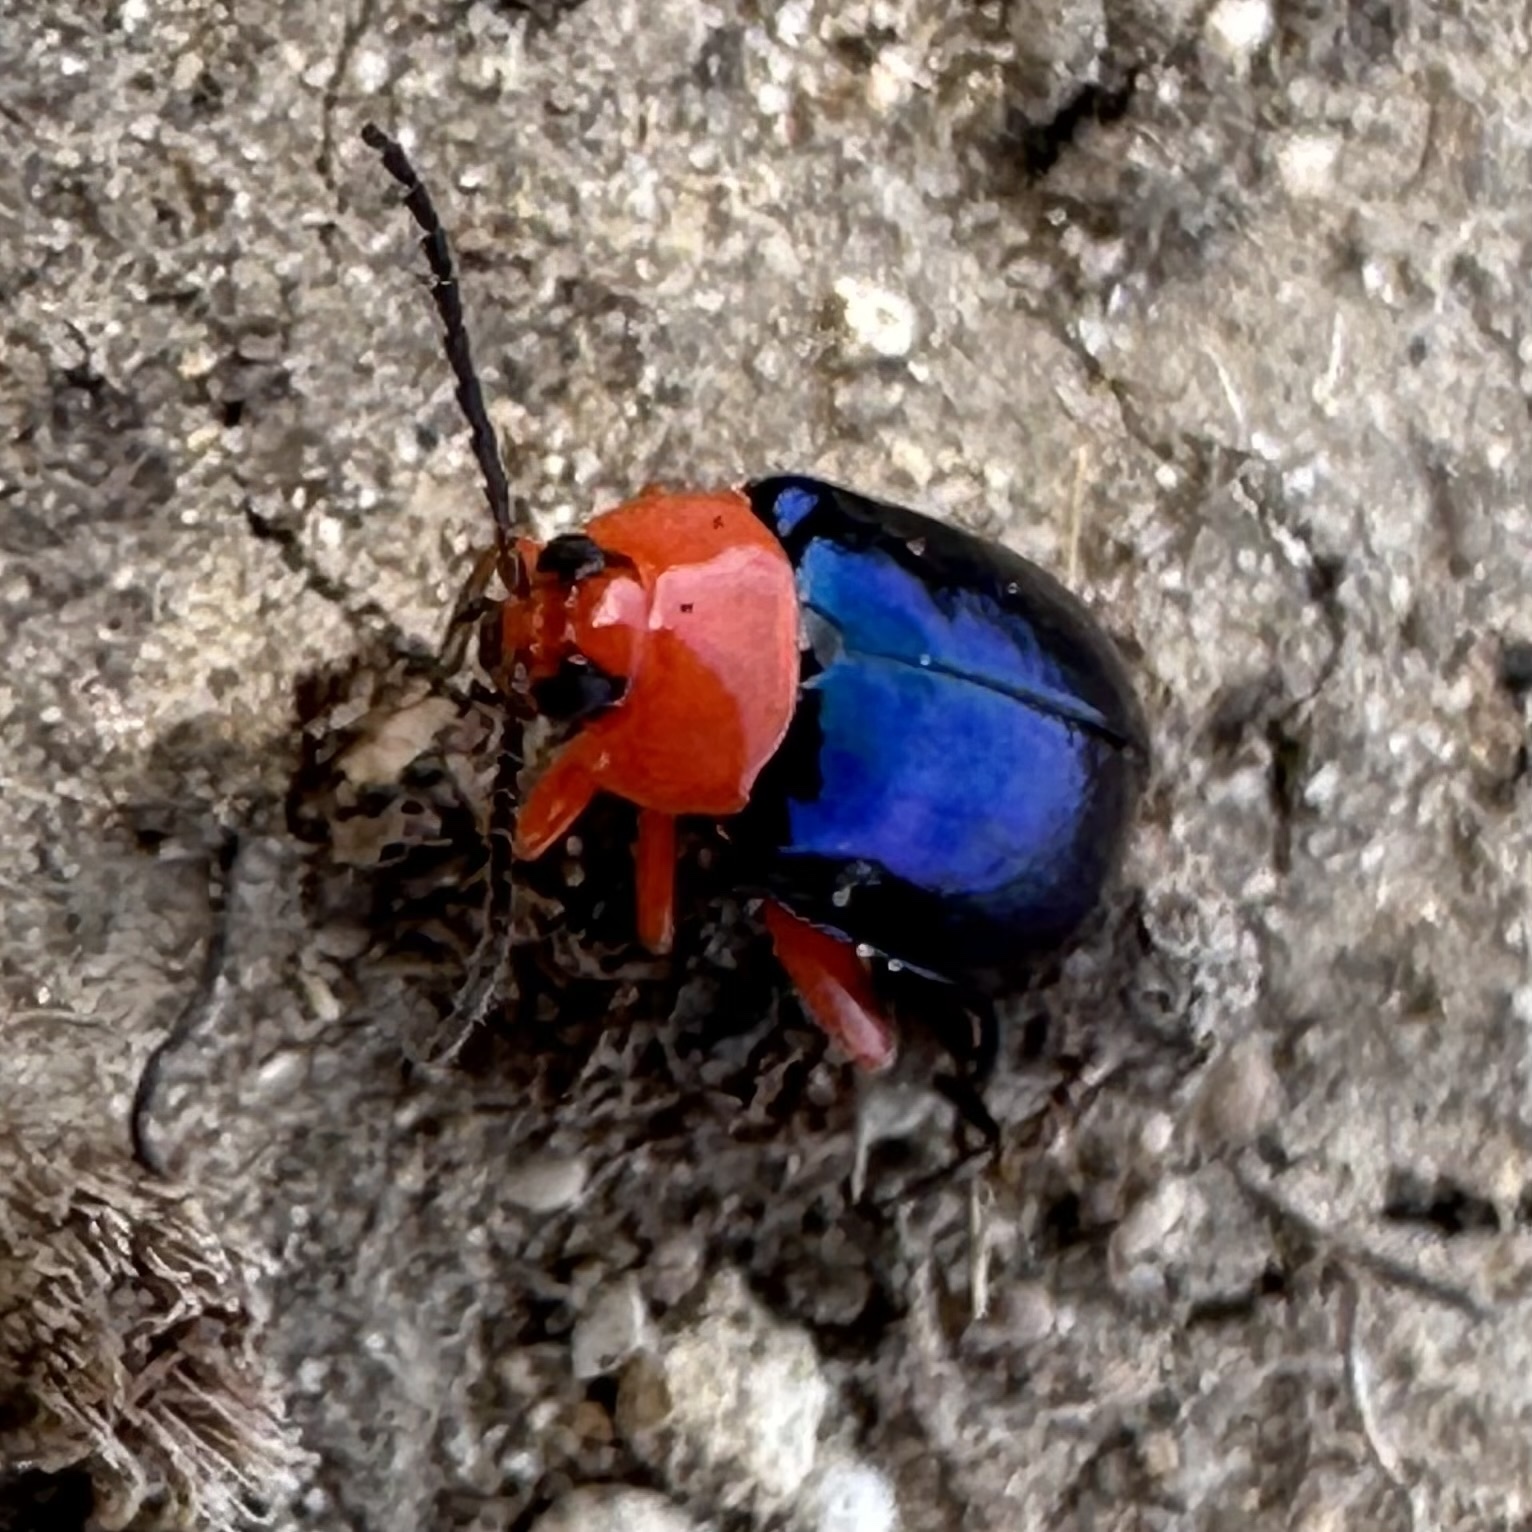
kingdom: Animalia
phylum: Arthropoda
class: Insecta
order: Coleoptera
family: Chrysomelidae
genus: Asphaera
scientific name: Asphaera lustrans
